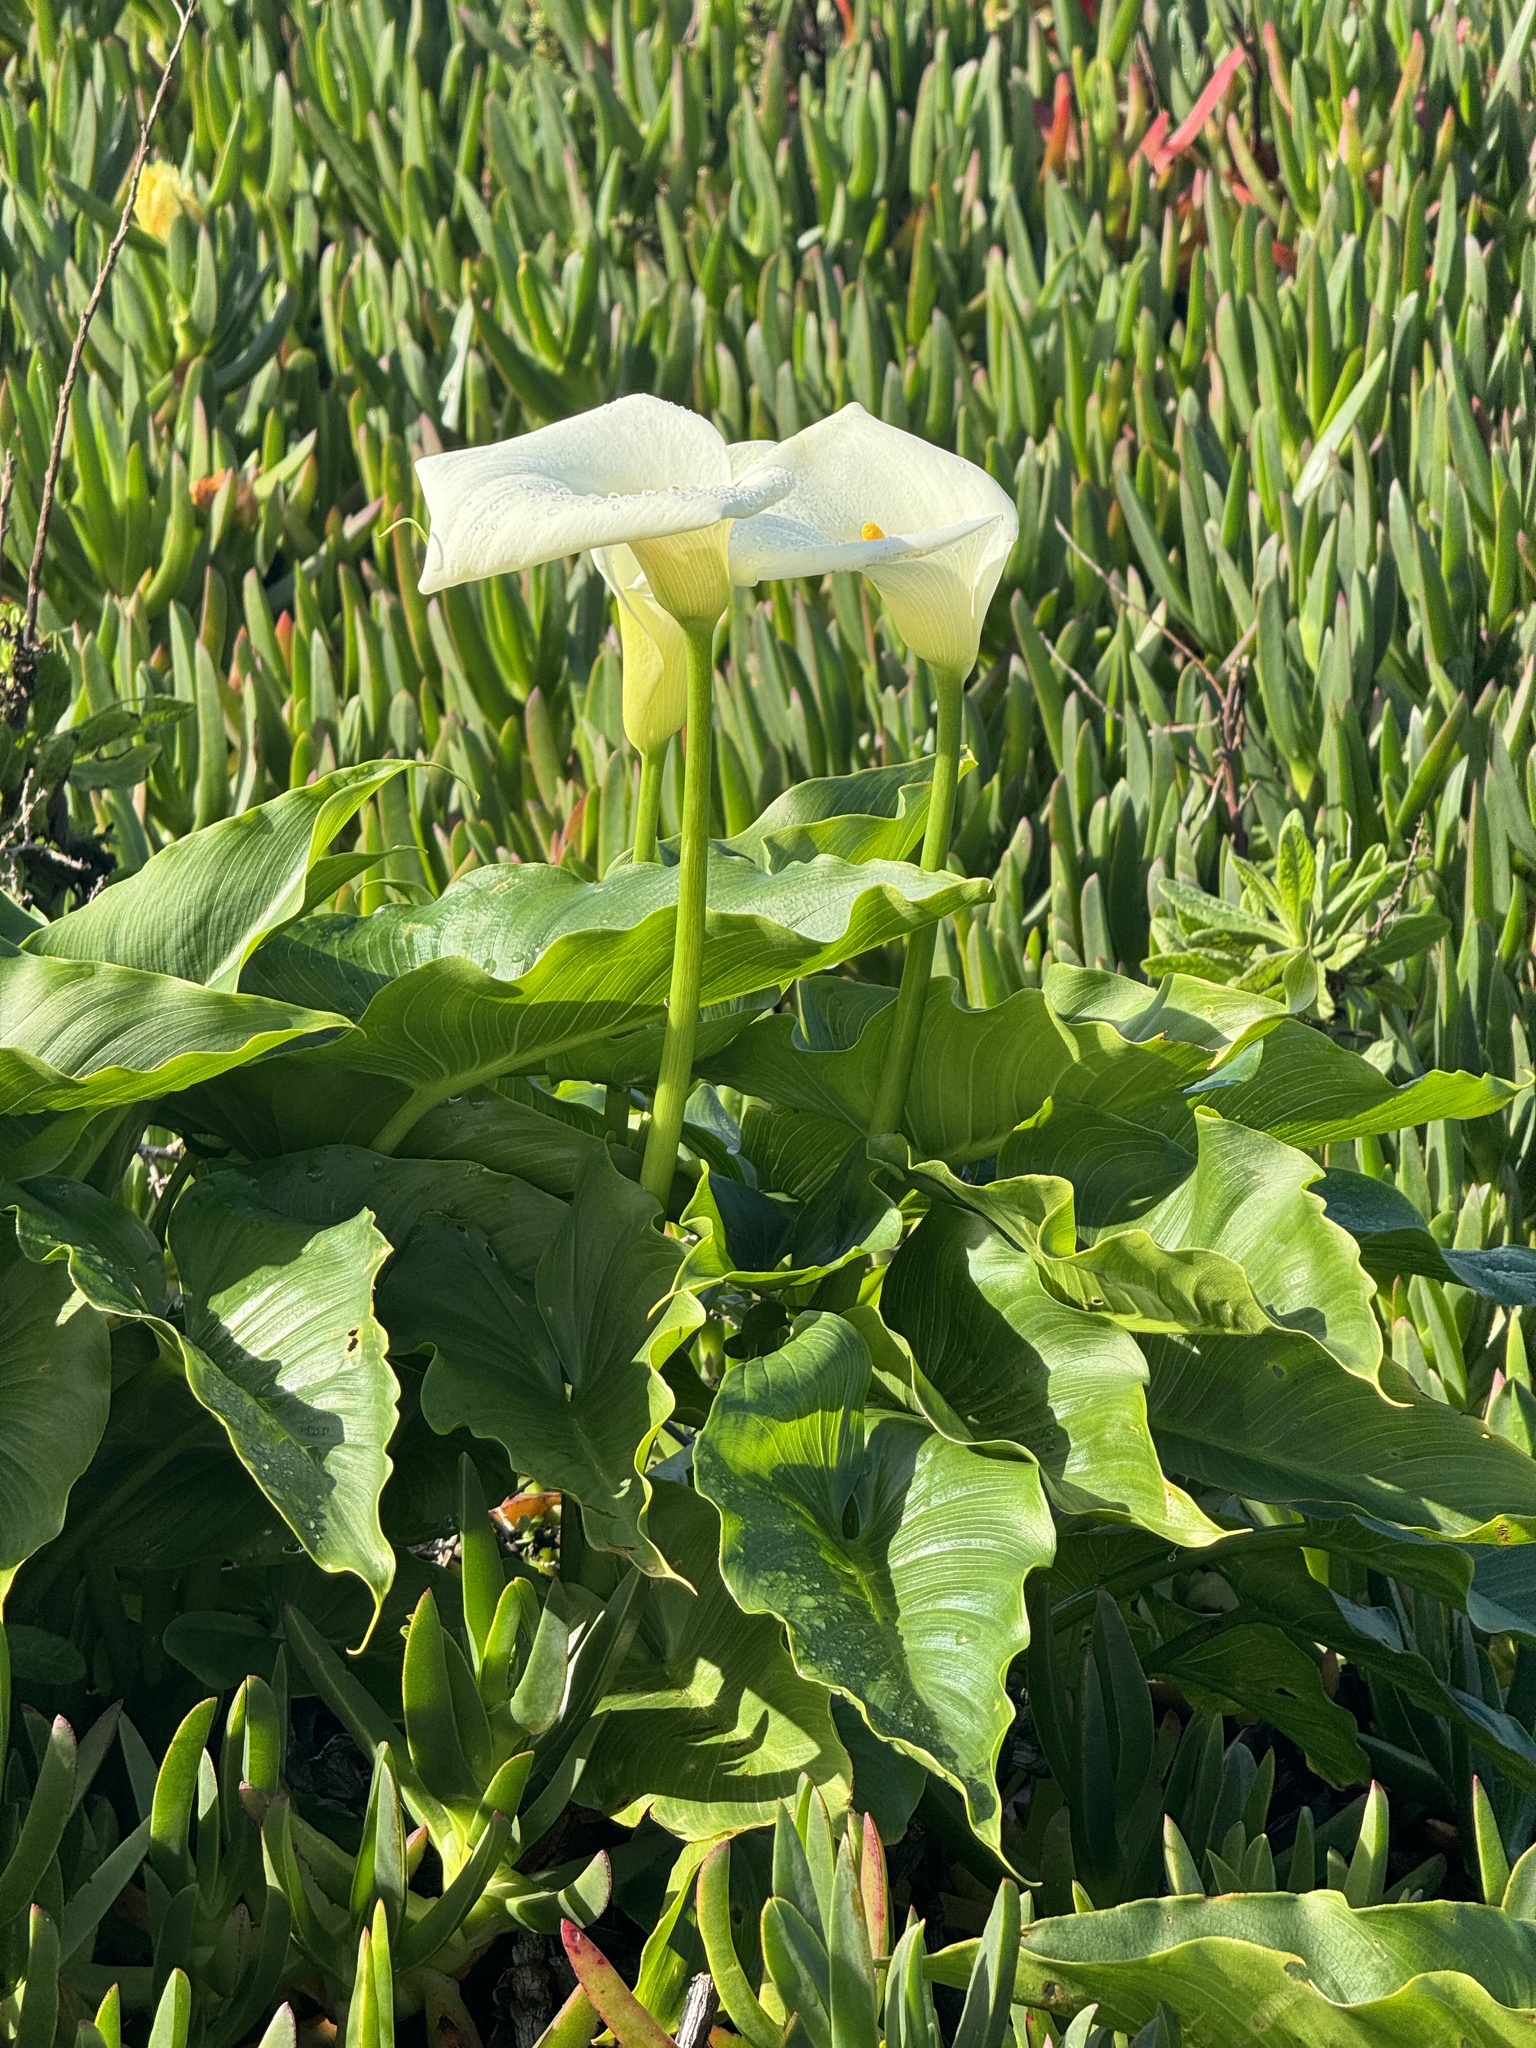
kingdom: Plantae
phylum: Tracheophyta
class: Liliopsida
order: Alismatales
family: Araceae
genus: Zantedeschia
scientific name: Zantedeschia aethiopica
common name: Altar-lily
